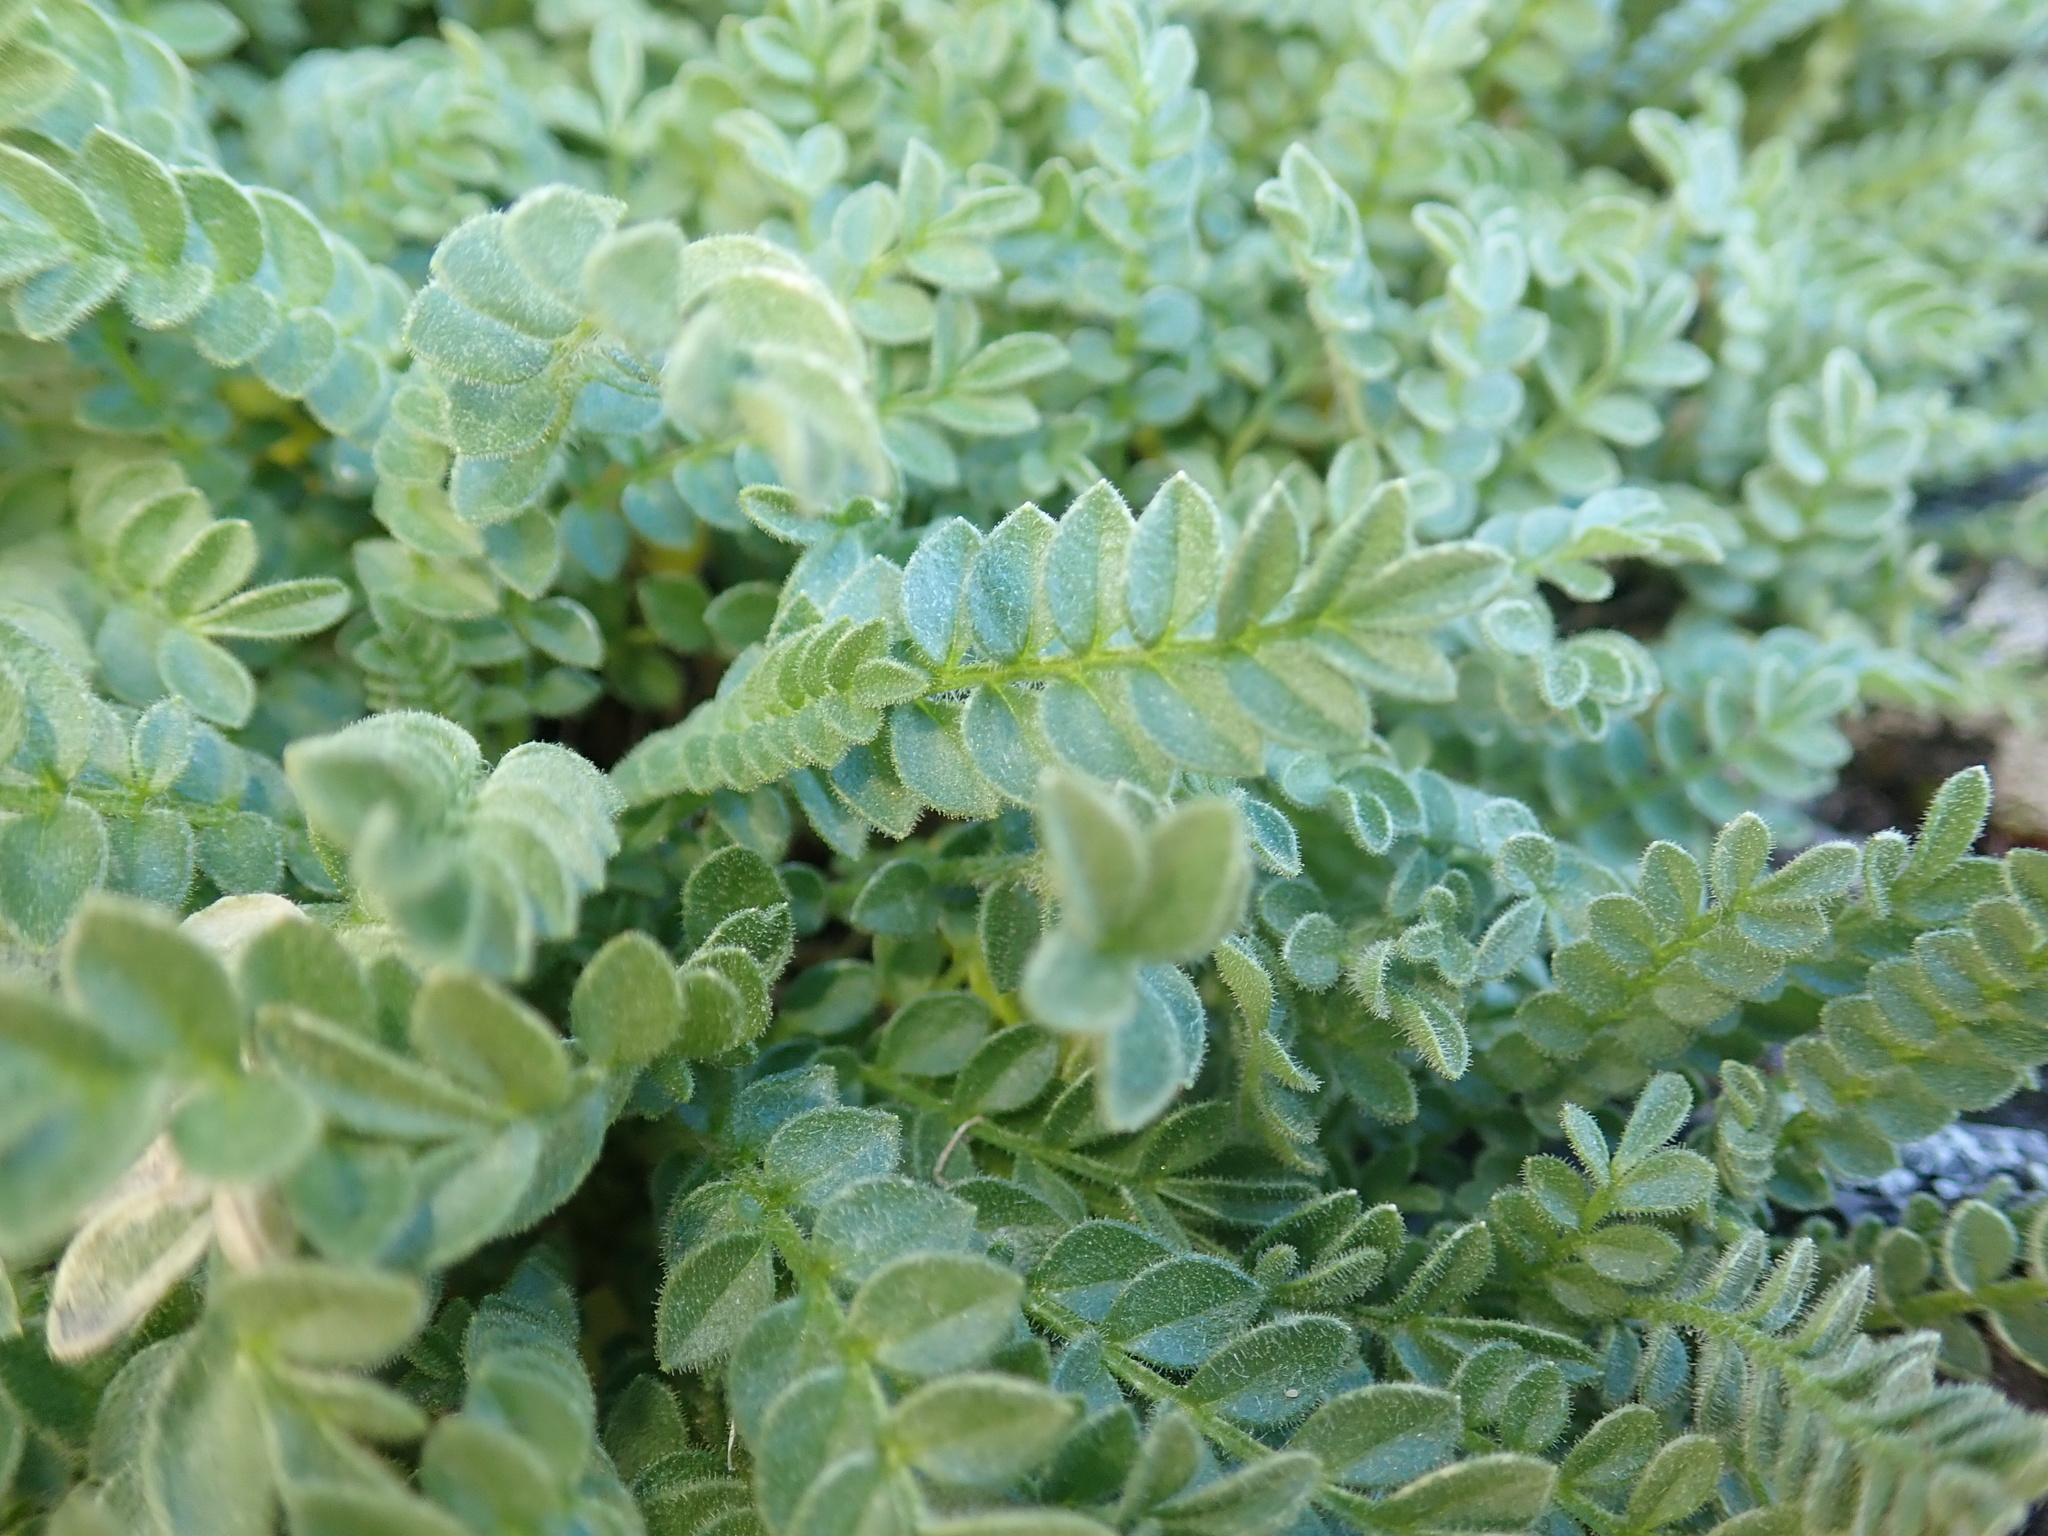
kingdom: Plantae
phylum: Tracheophyta
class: Magnoliopsida
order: Ericales
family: Polemoniaceae
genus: Polemonium
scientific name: Polemonium elegans
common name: Elegant jacob's-ladder
